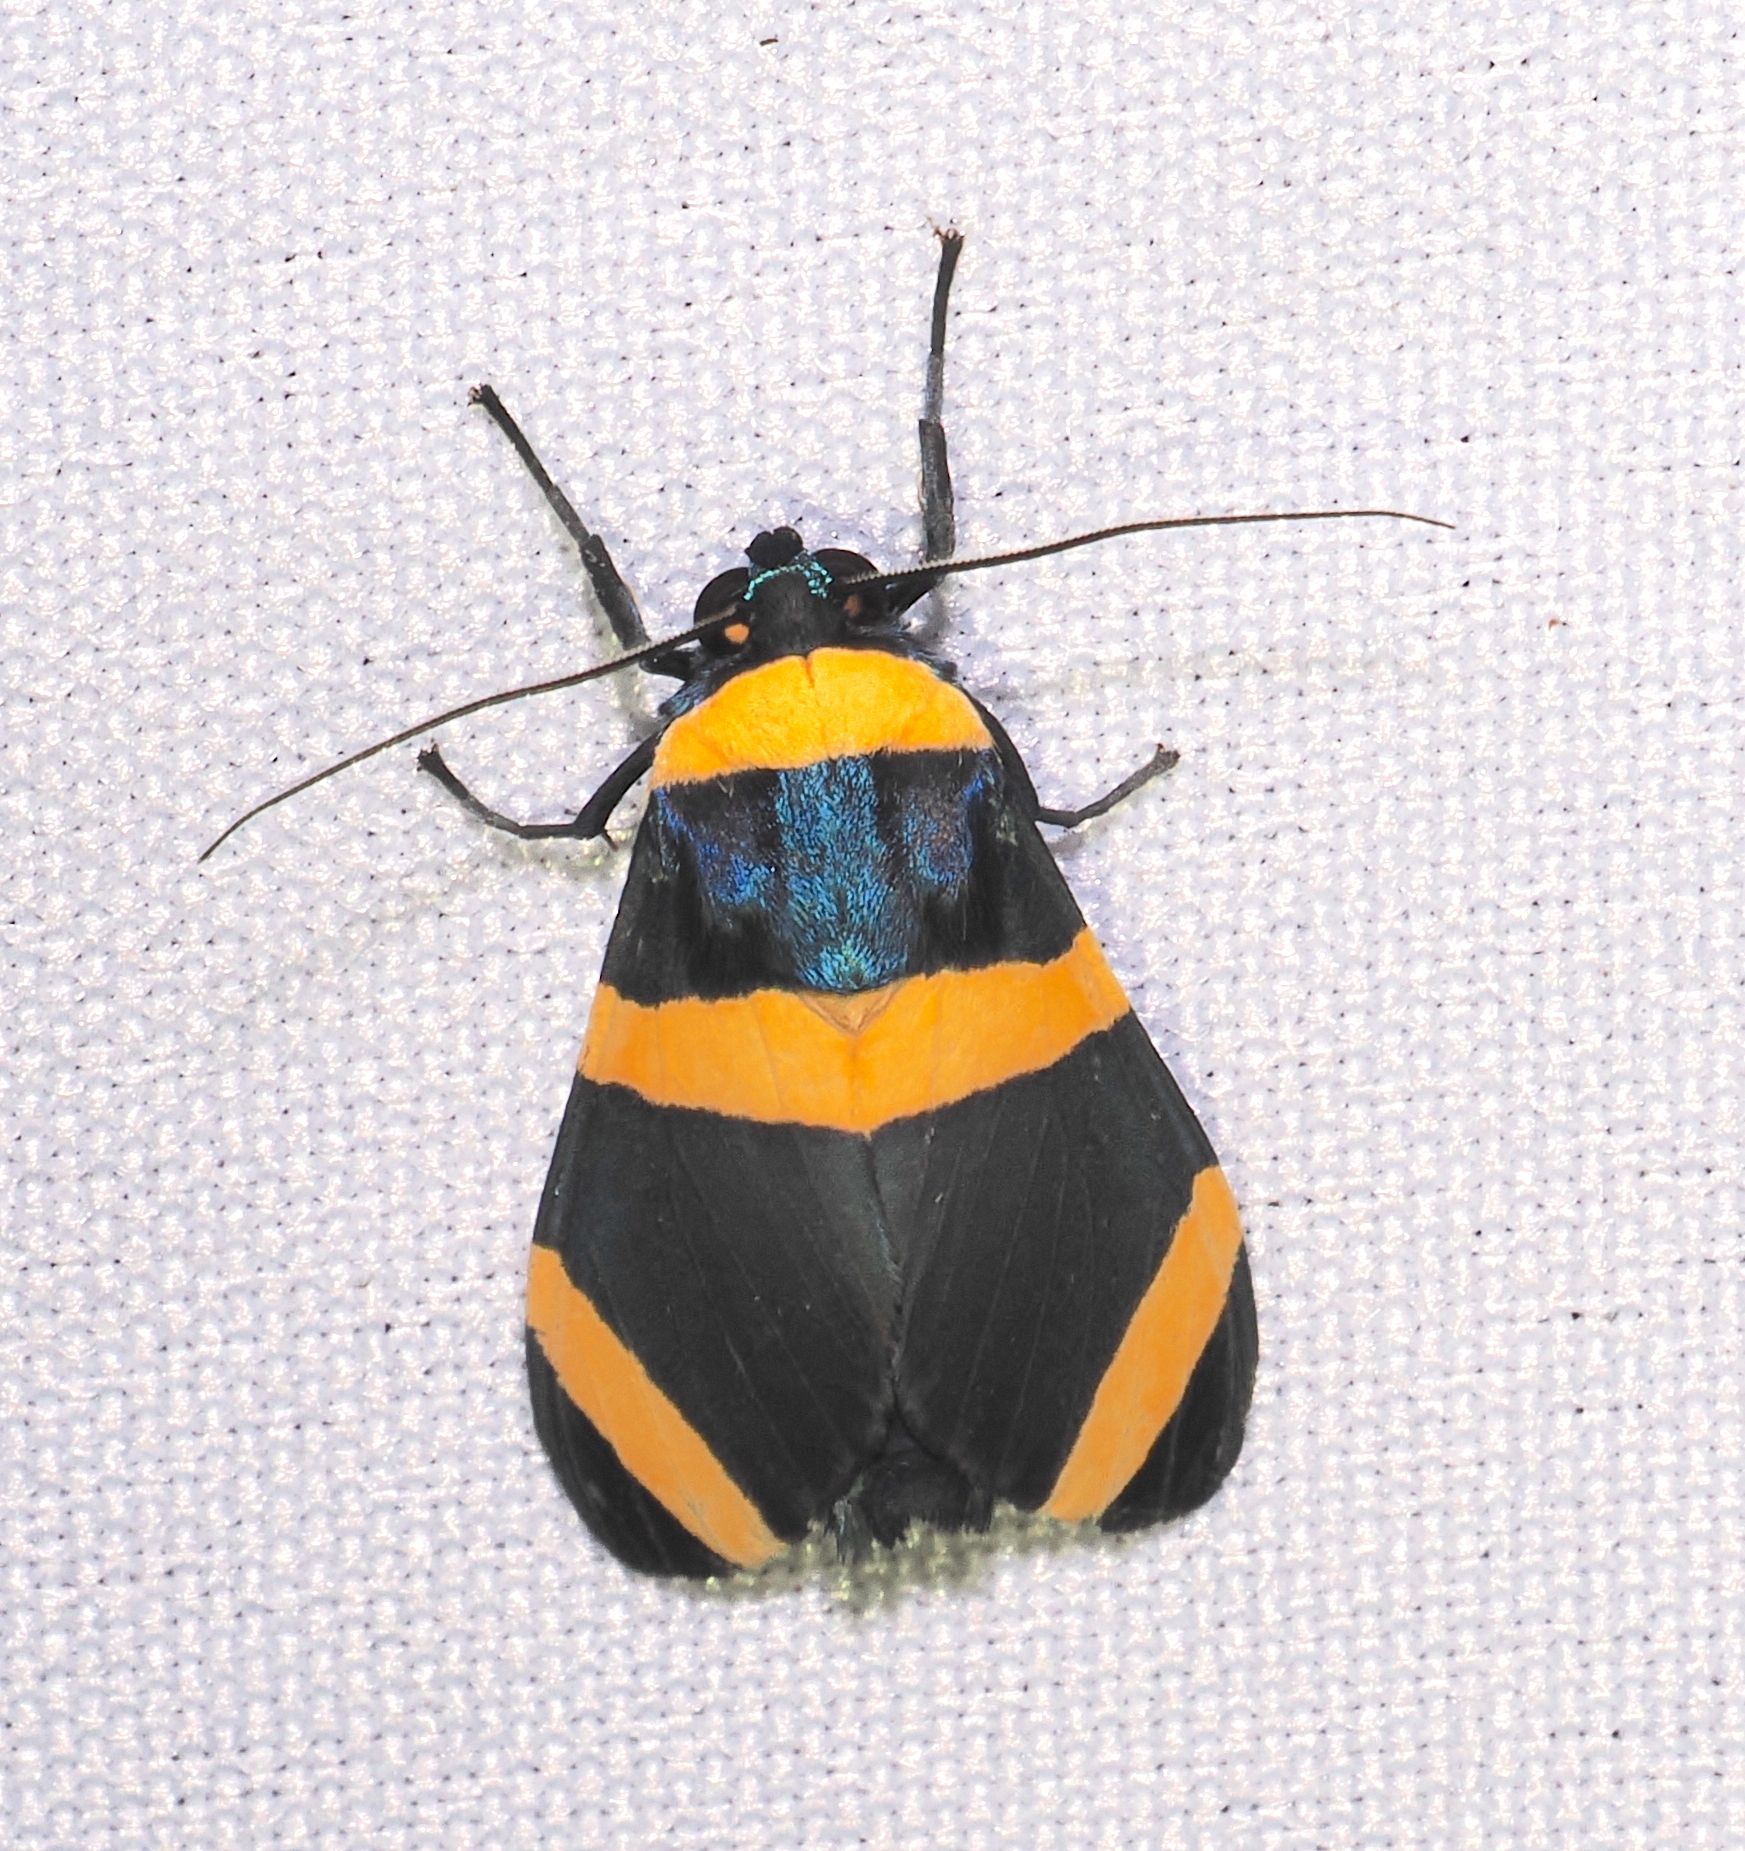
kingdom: Animalia
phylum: Arthropoda
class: Insecta
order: Lepidoptera
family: Erebidae
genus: Viviennea
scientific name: Viviennea flavicincta
